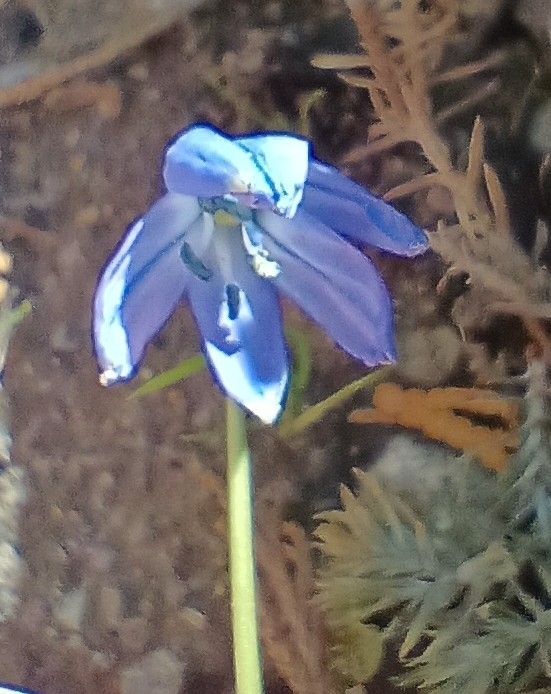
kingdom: Plantae
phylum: Tracheophyta
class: Liliopsida
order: Asparagales
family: Asparagaceae
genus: Scilla
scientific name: Scilla siberica
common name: Siberian squill
